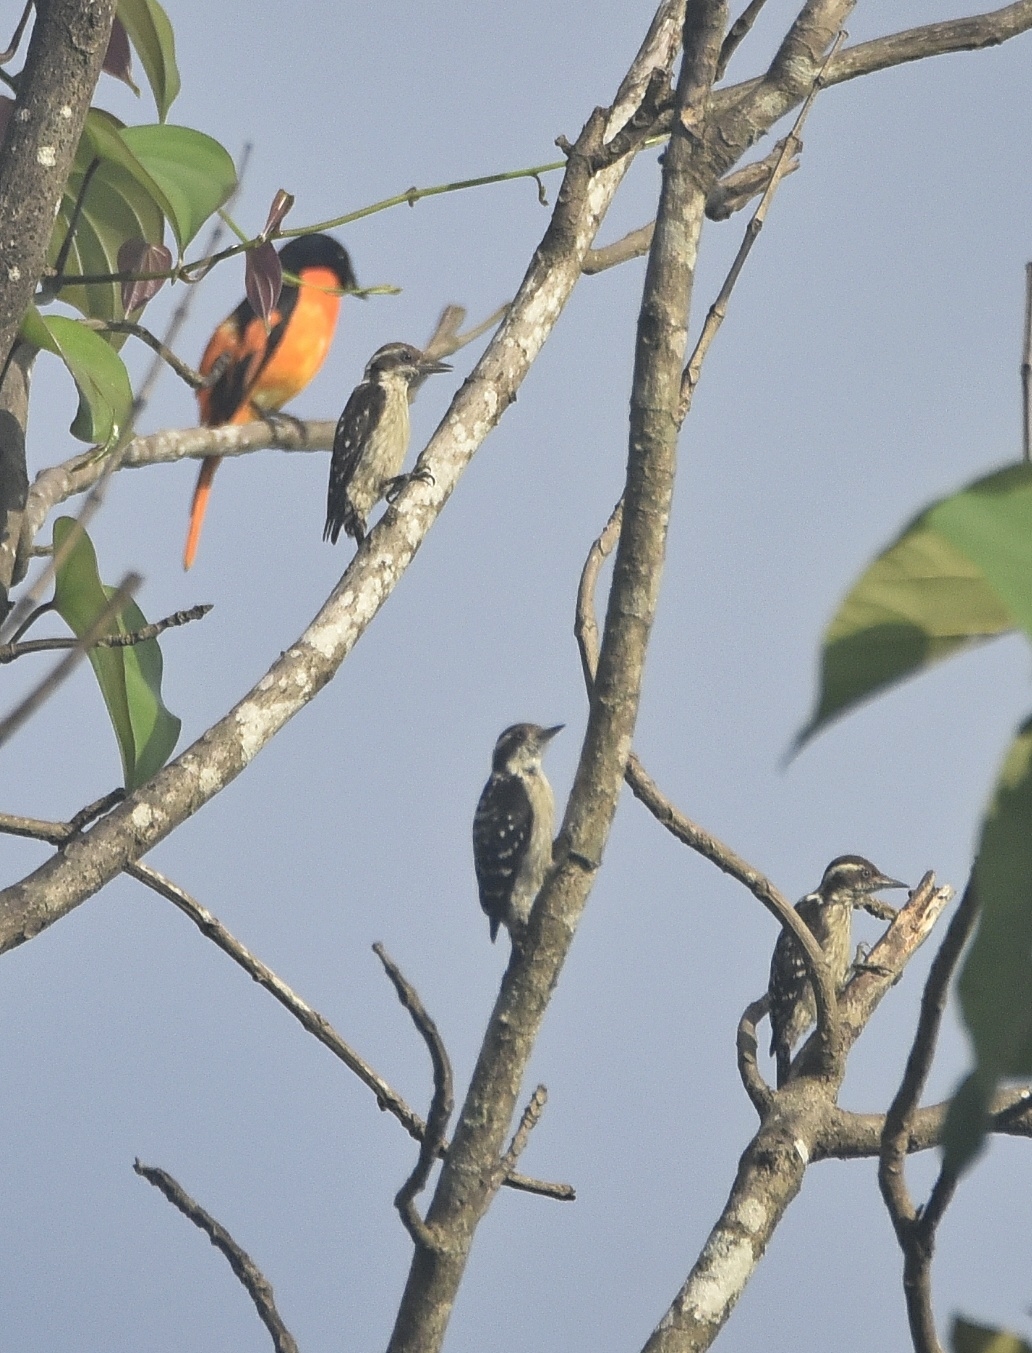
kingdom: Animalia
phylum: Chordata
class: Aves
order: Piciformes
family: Picidae
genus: Yungipicus
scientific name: Yungipicus nanus
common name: Brown-capped pygmy woodpecker
